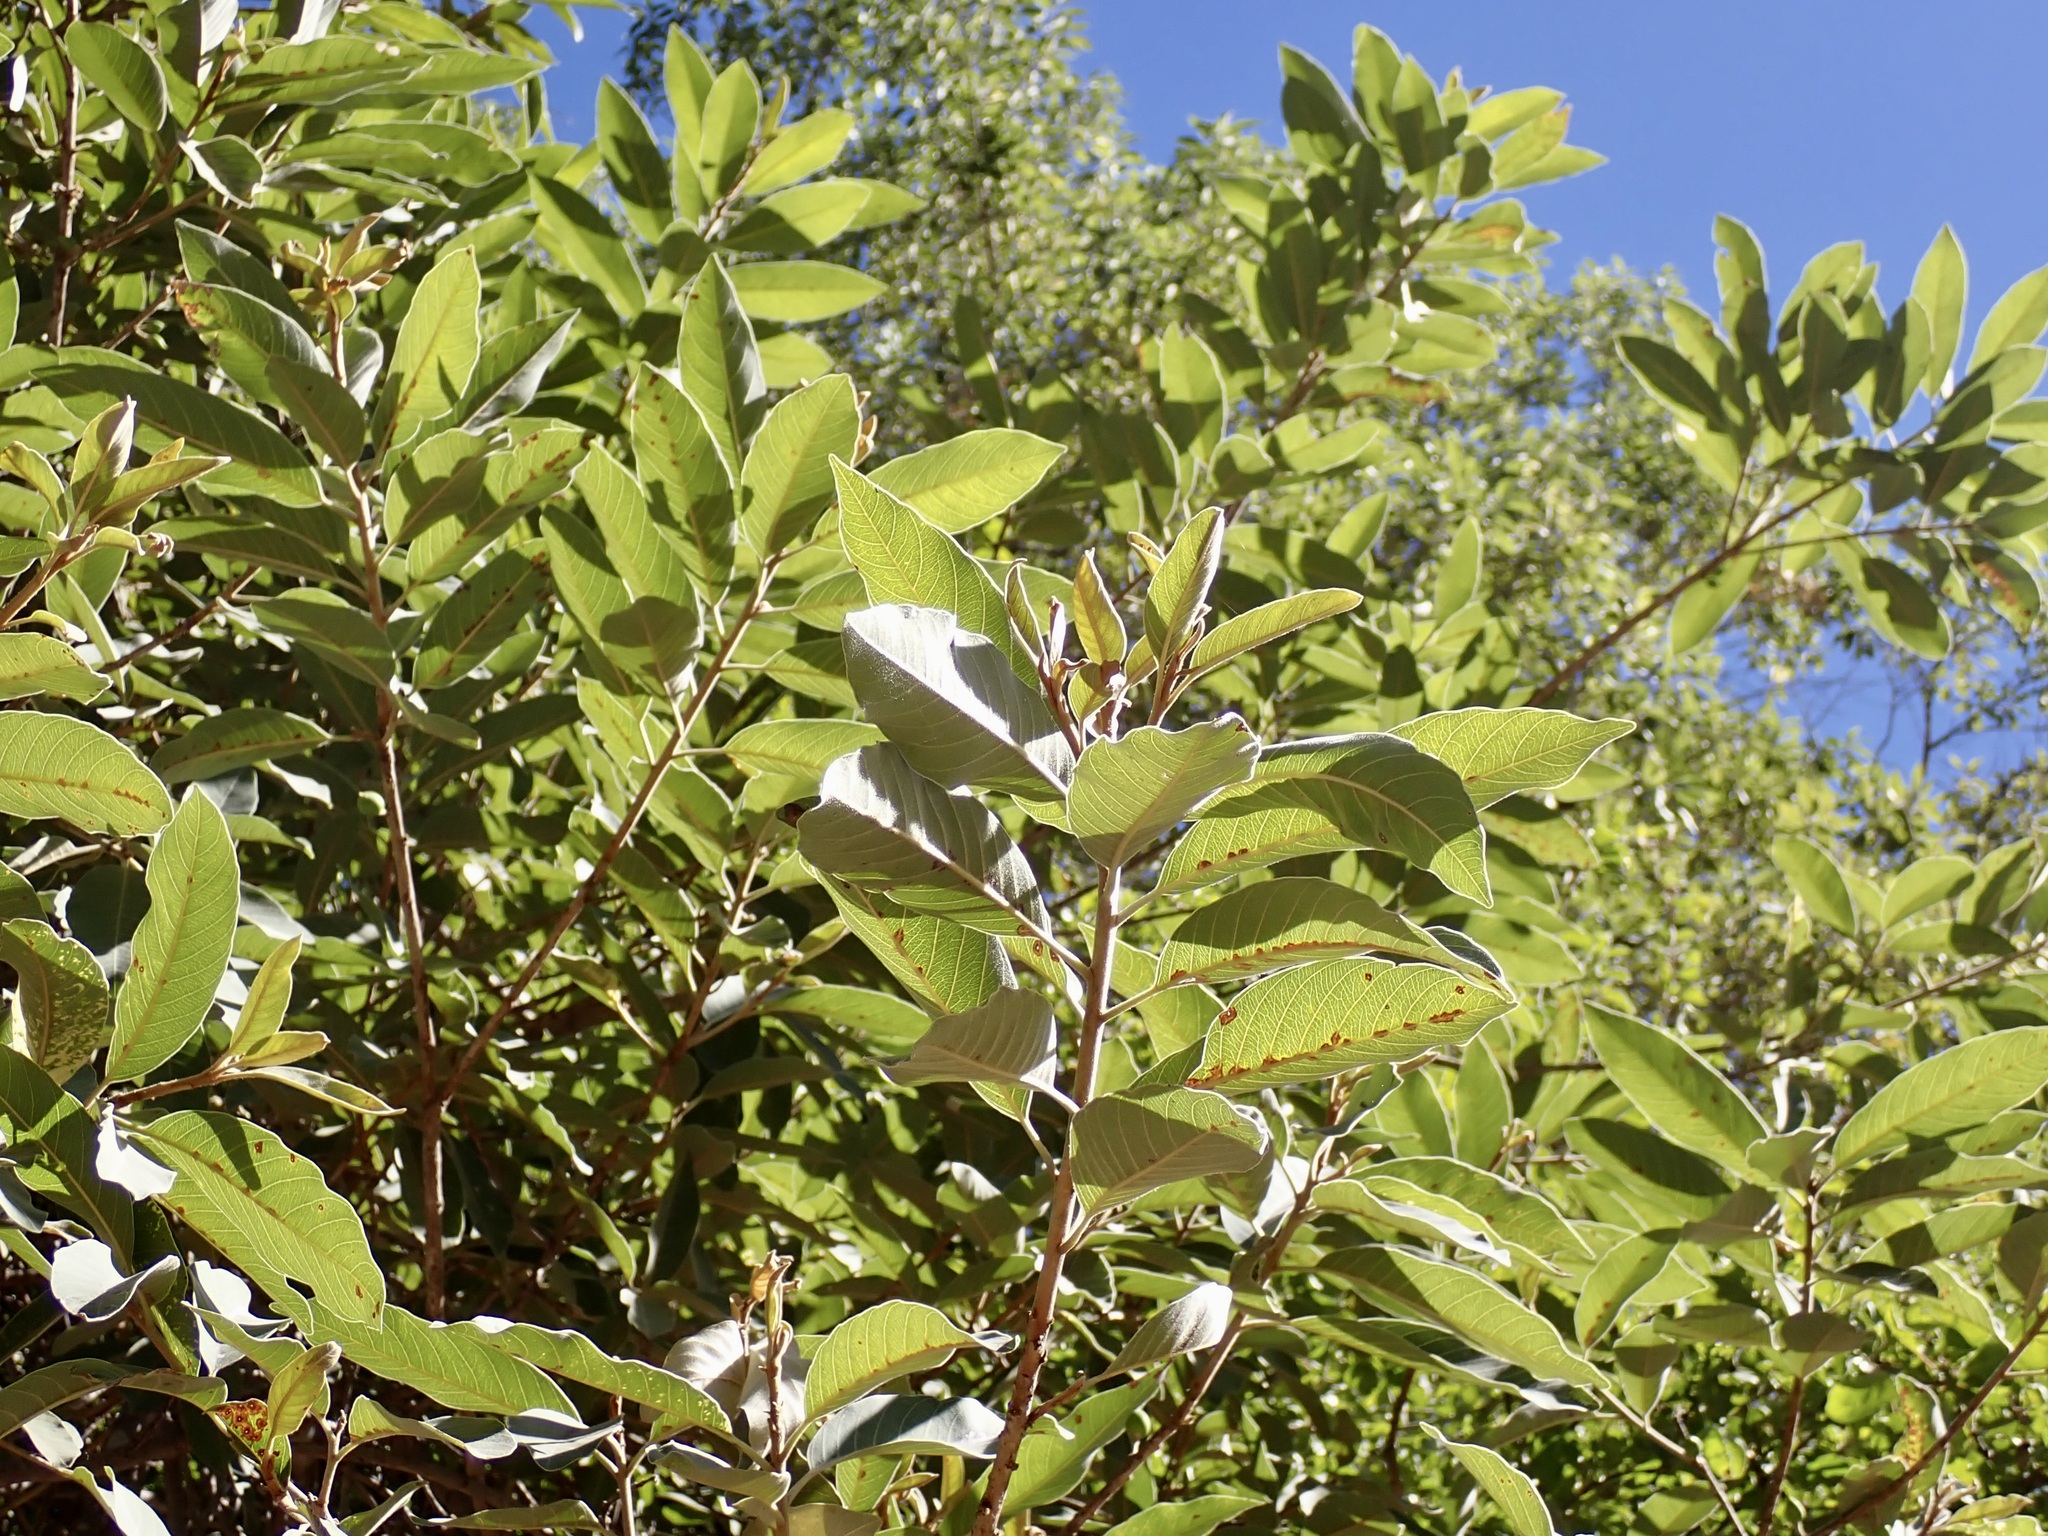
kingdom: Plantae
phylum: Tracheophyta
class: Magnoliopsida
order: Ericales
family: Sapotaceae
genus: Sideroxylon
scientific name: Sideroxylon tepicense
